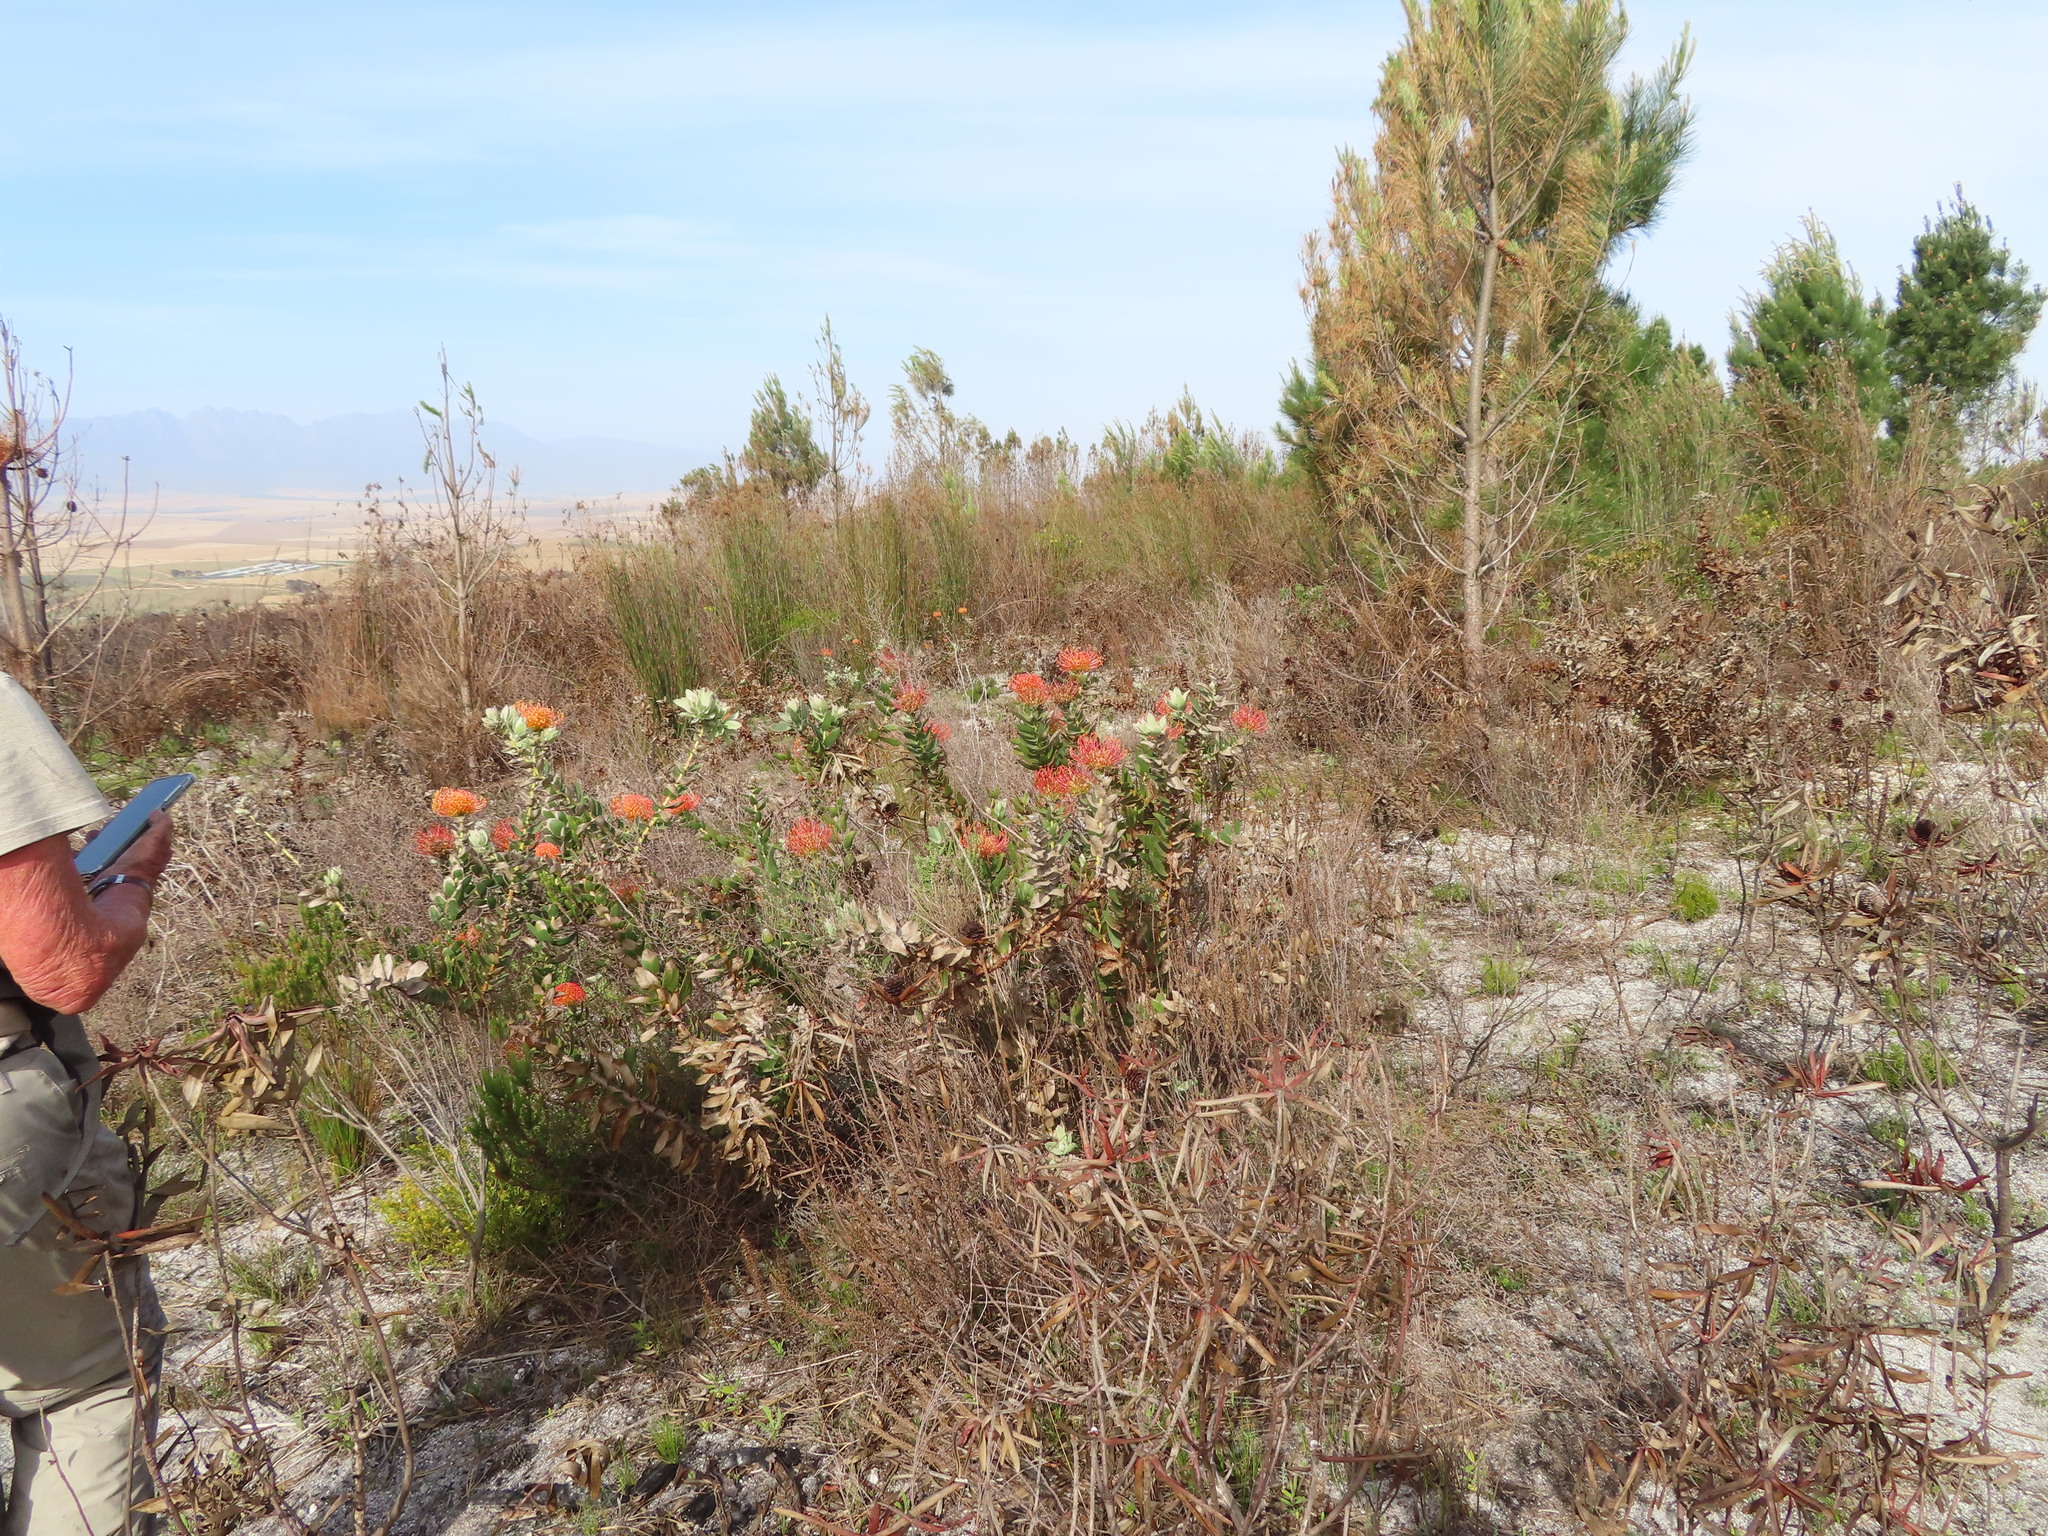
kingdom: Plantae
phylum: Tracheophyta
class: Magnoliopsida
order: Proteales
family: Proteaceae
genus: Leucospermum
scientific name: Leucospermum cordifolium
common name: Red pincushion-protea
